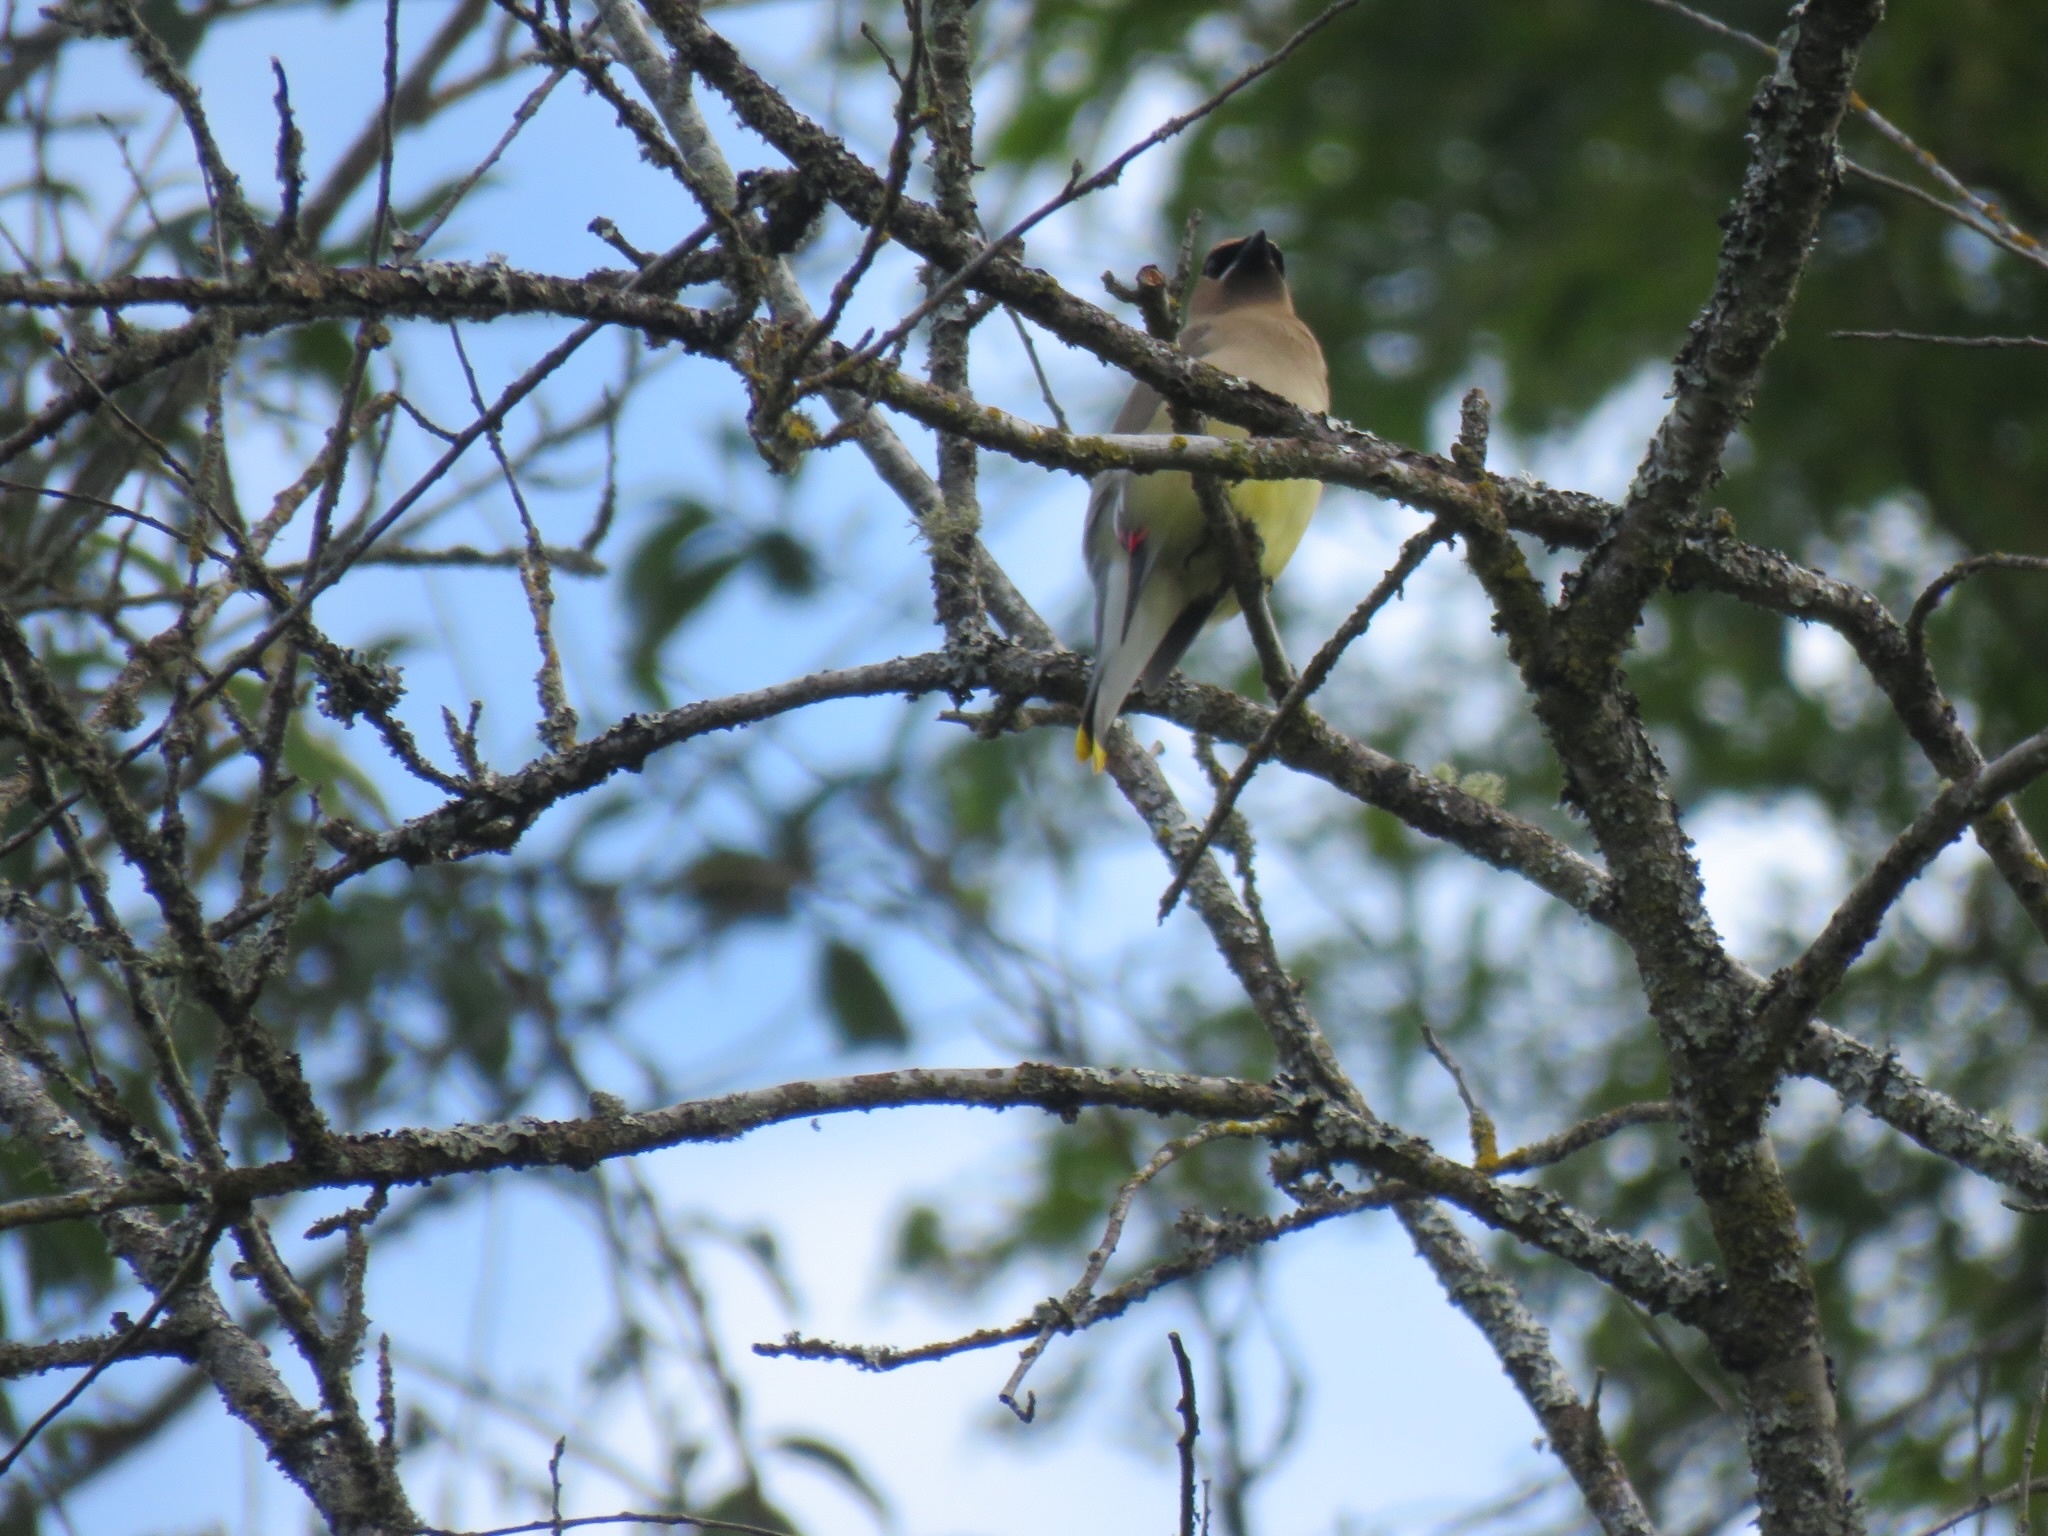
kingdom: Animalia
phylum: Chordata
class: Aves
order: Passeriformes
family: Bombycillidae
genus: Bombycilla
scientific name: Bombycilla cedrorum
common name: Cedar waxwing
